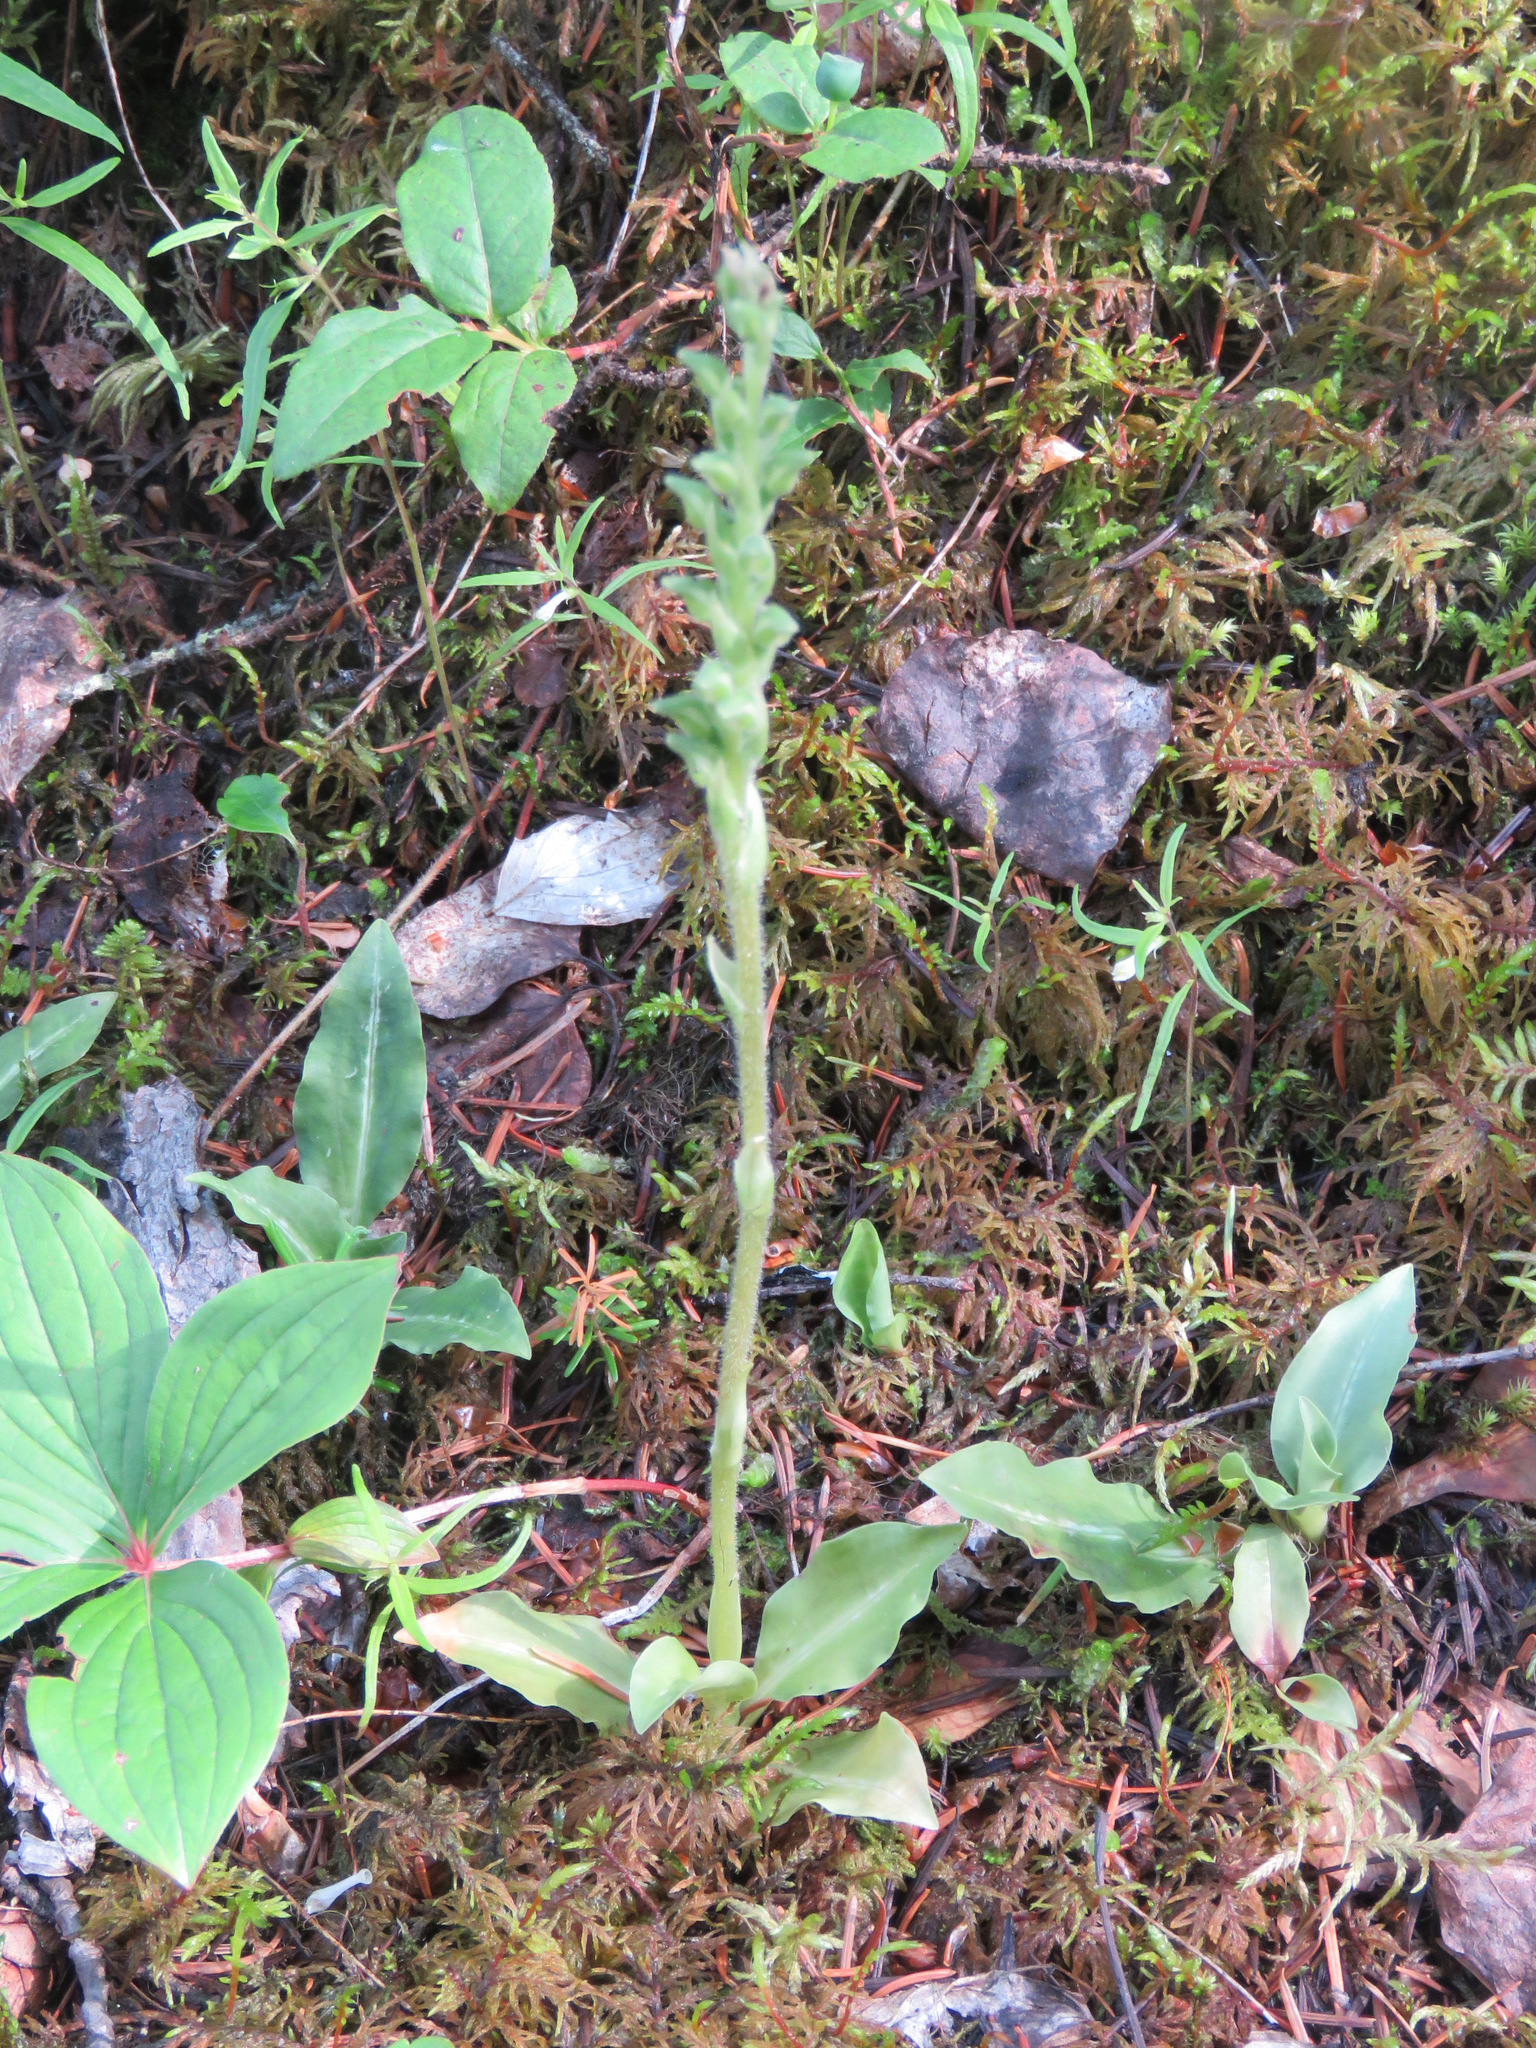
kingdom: Plantae
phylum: Tracheophyta
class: Liliopsida
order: Asparagales
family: Orchidaceae
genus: Goodyera
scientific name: Goodyera oblongifolia
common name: Giant rattlesnake-plantain
